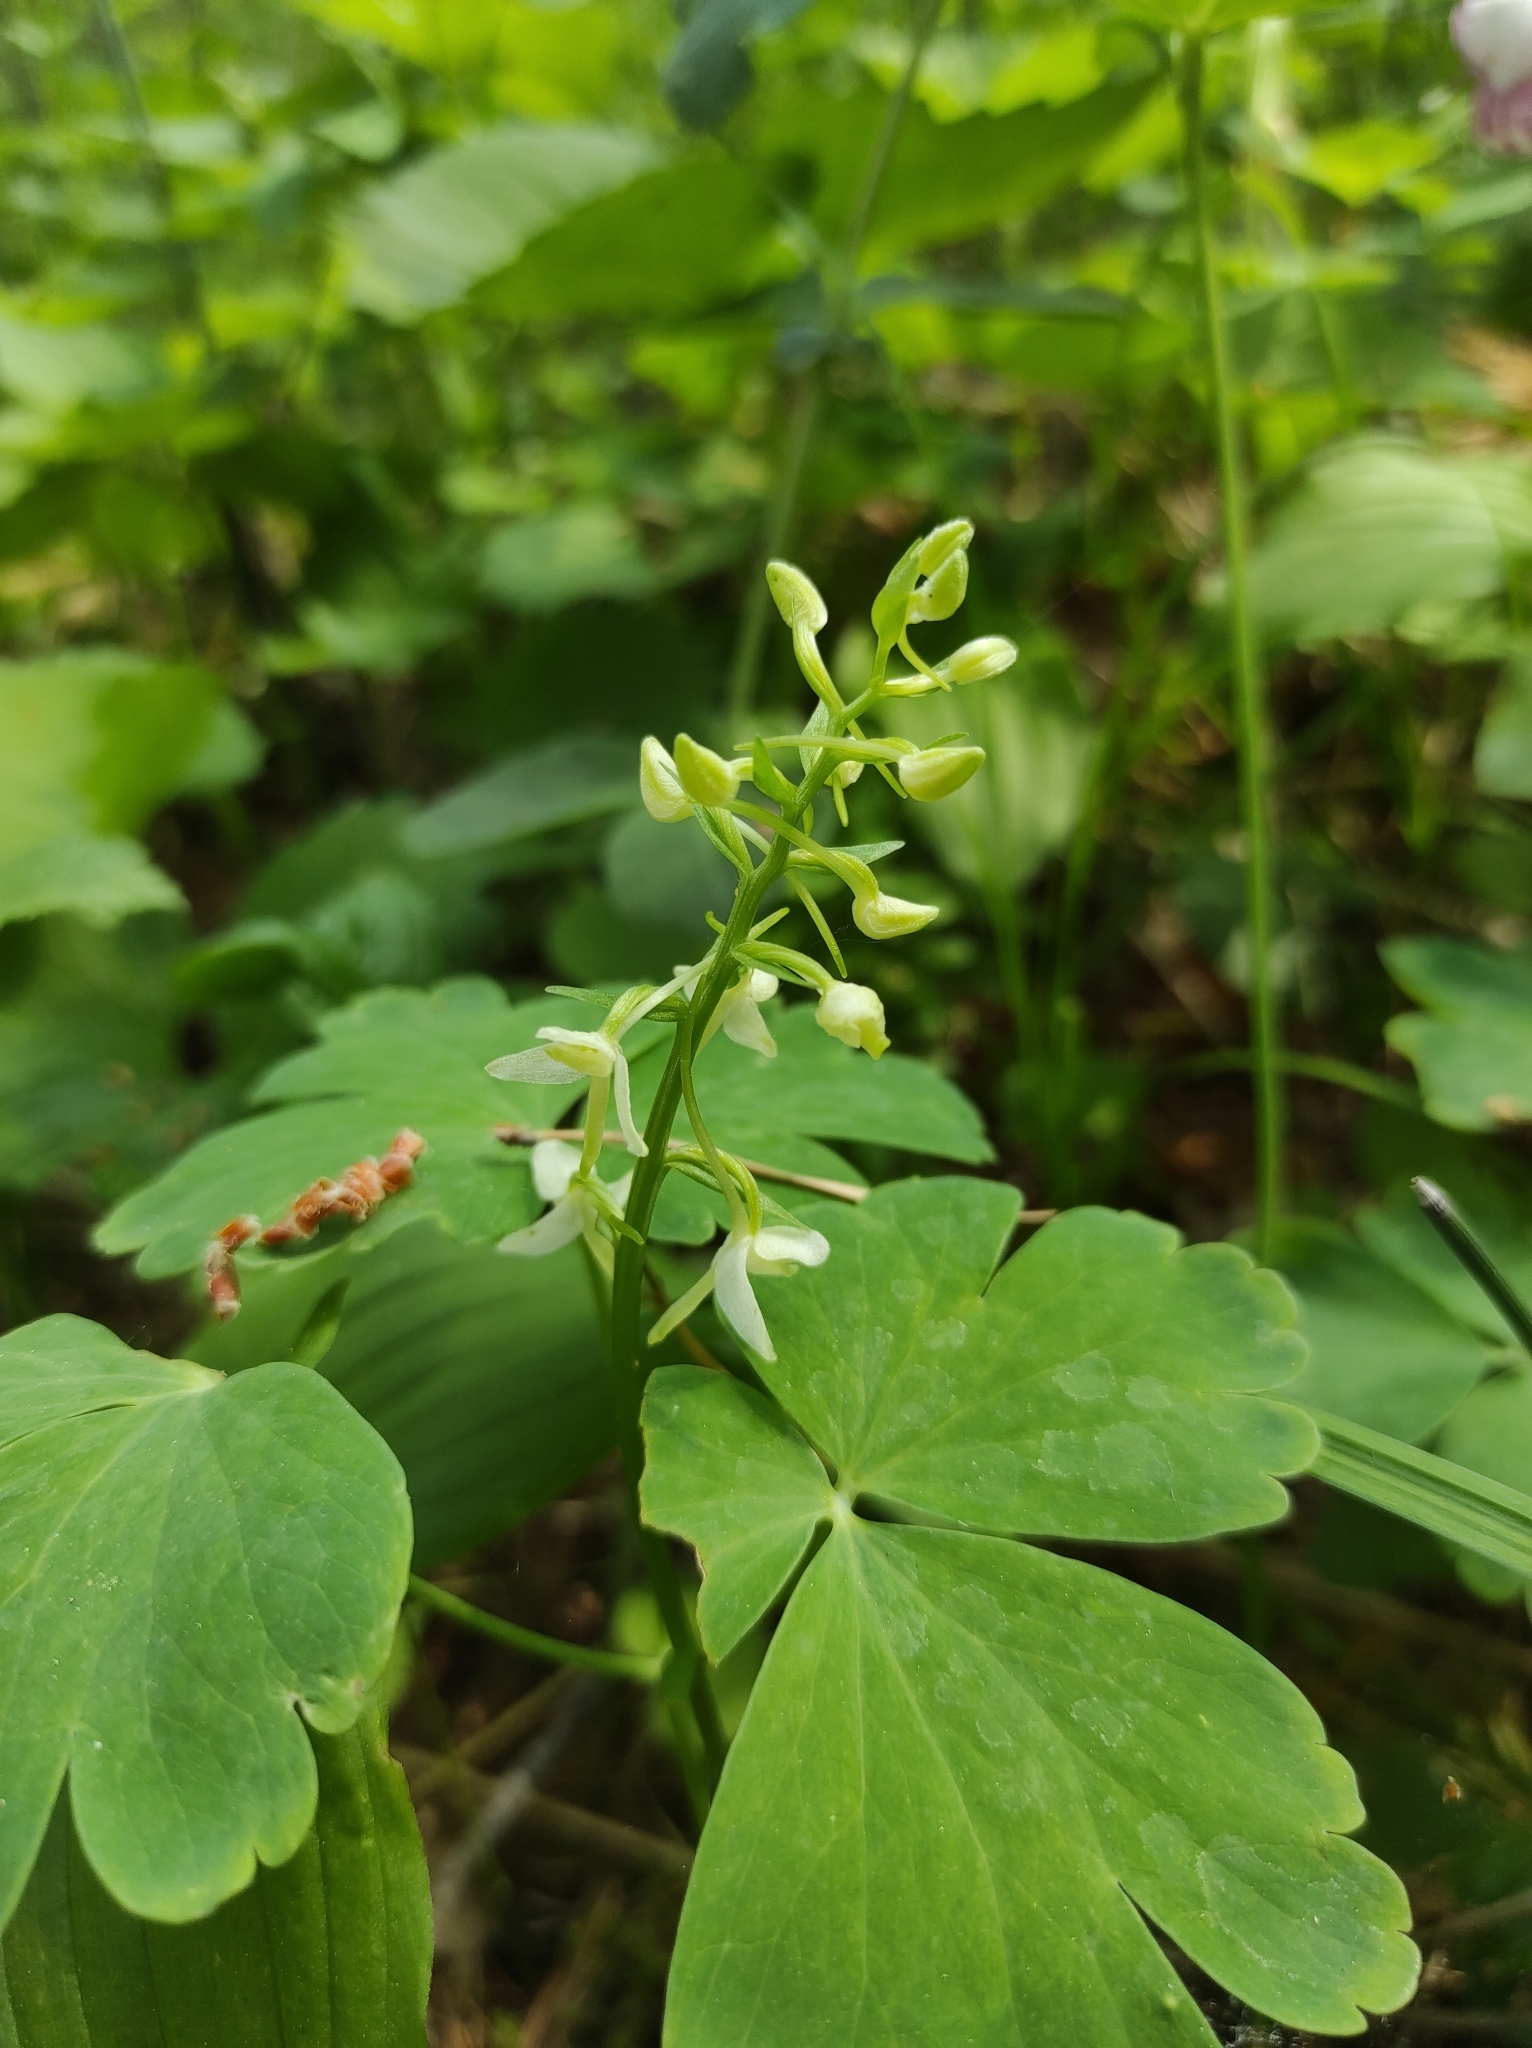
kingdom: Plantae
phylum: Tracheophyta
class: Liliopsida
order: Asparagales
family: Orchidaceae
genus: Platanthera
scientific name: Platanthera bifolia
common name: Lesser butterfly-orchid
